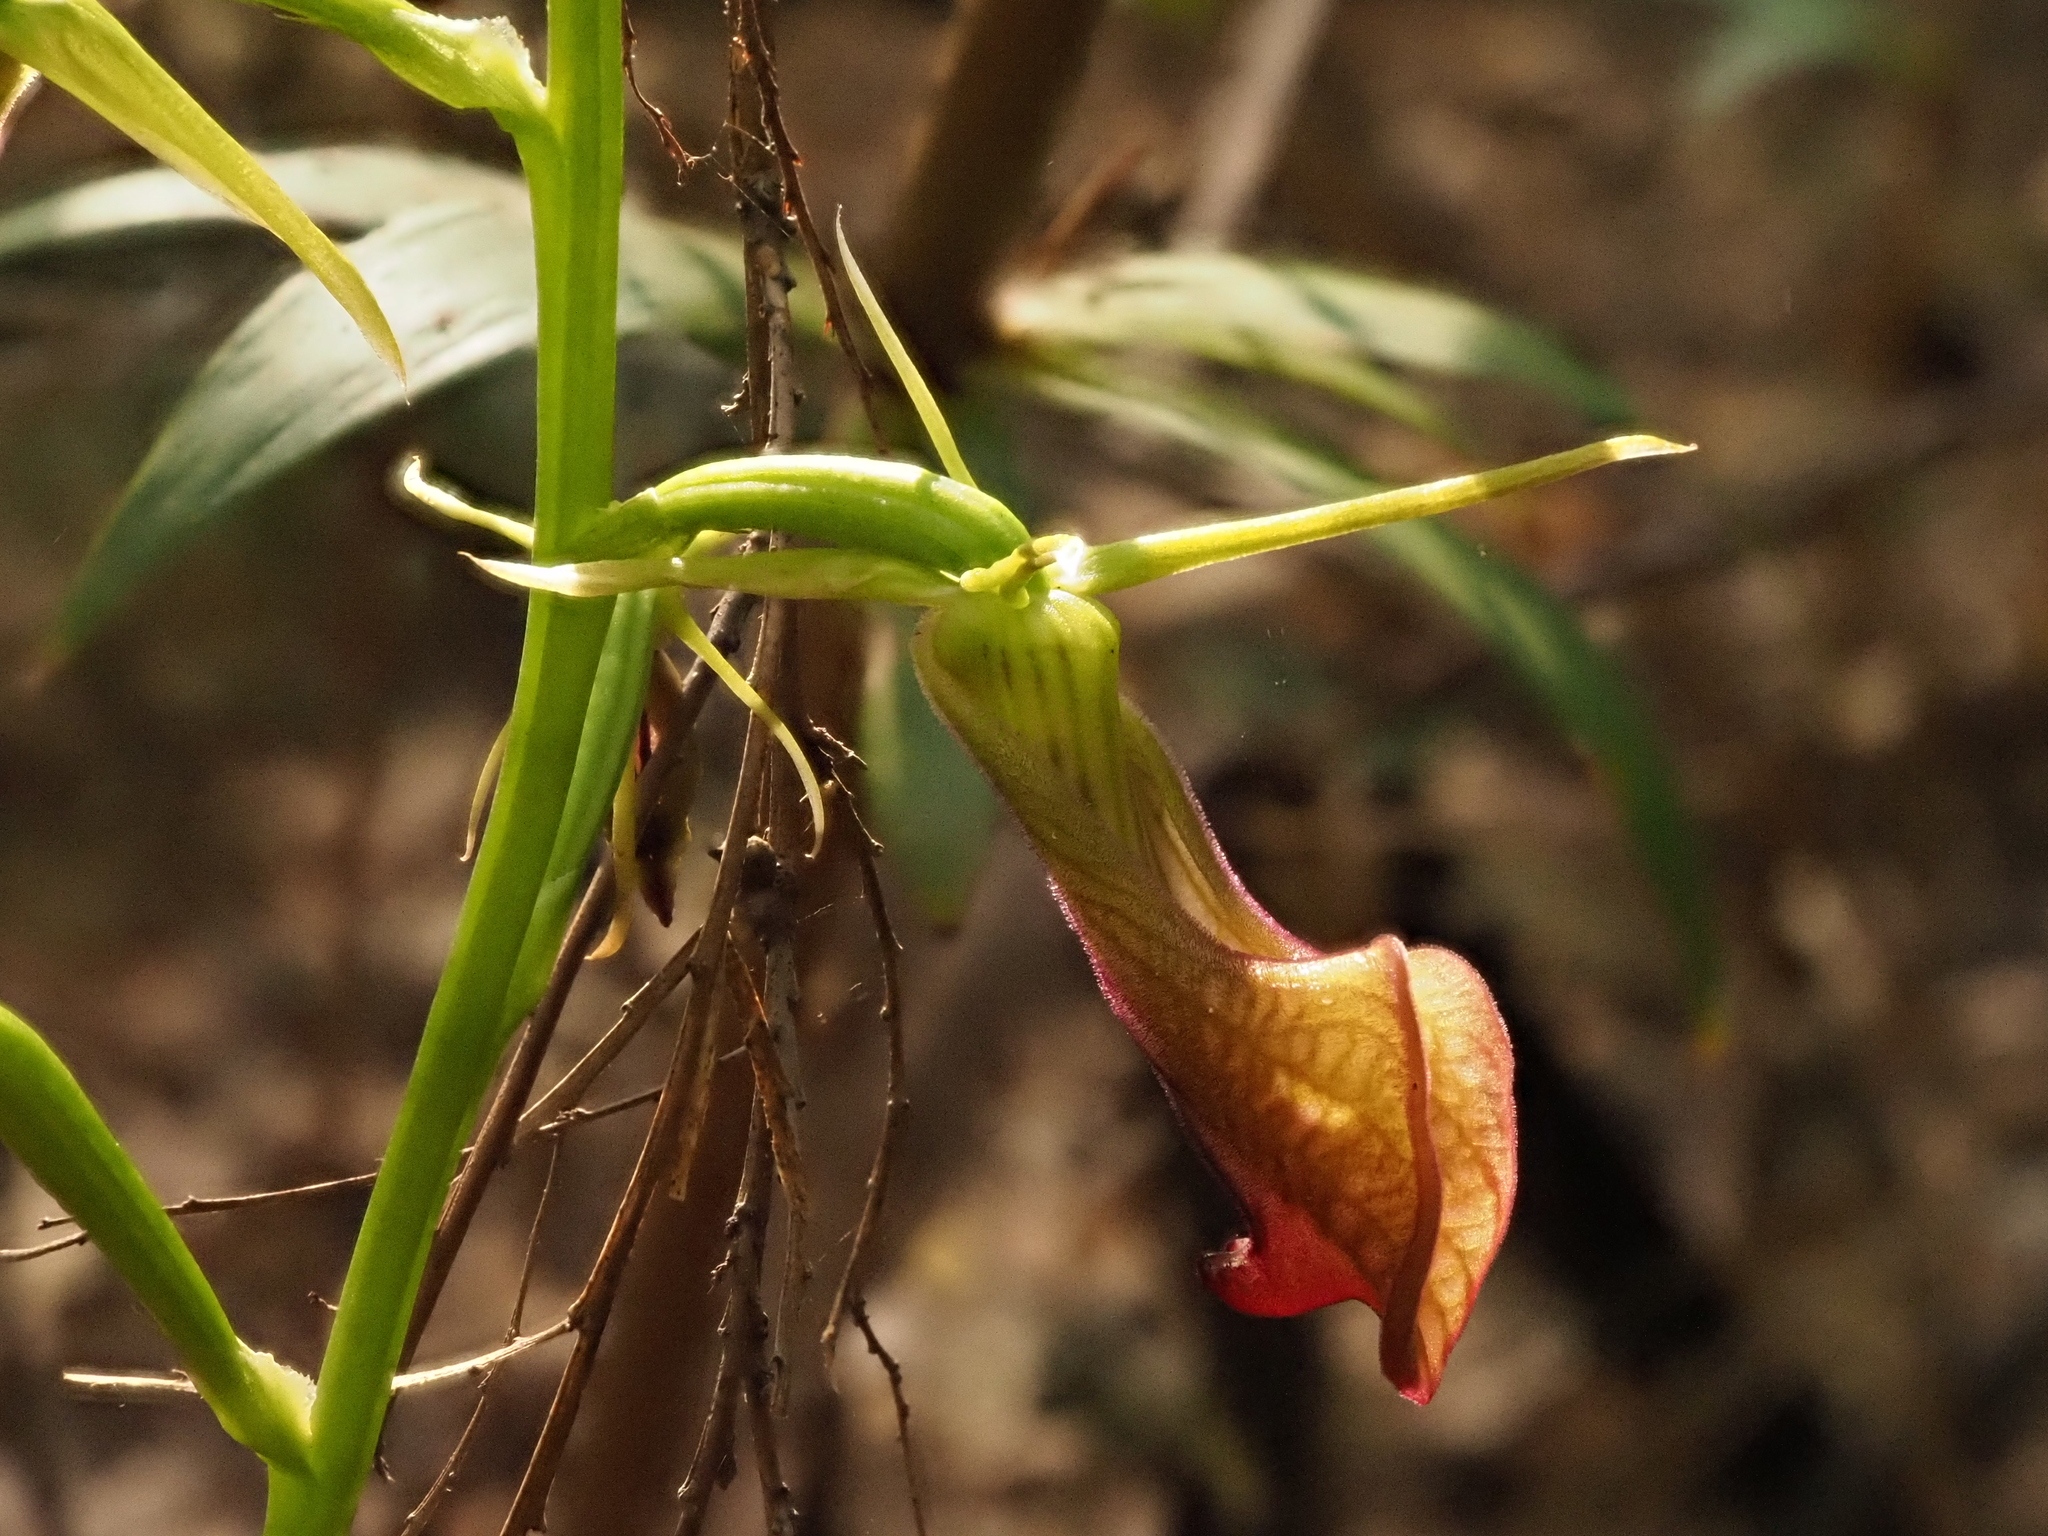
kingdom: Plantae
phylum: Tracheophyta
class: Liliopsida
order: Asparagales
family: Orchidaceae
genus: Cryptostylis
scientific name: Cryptostylis ovata
